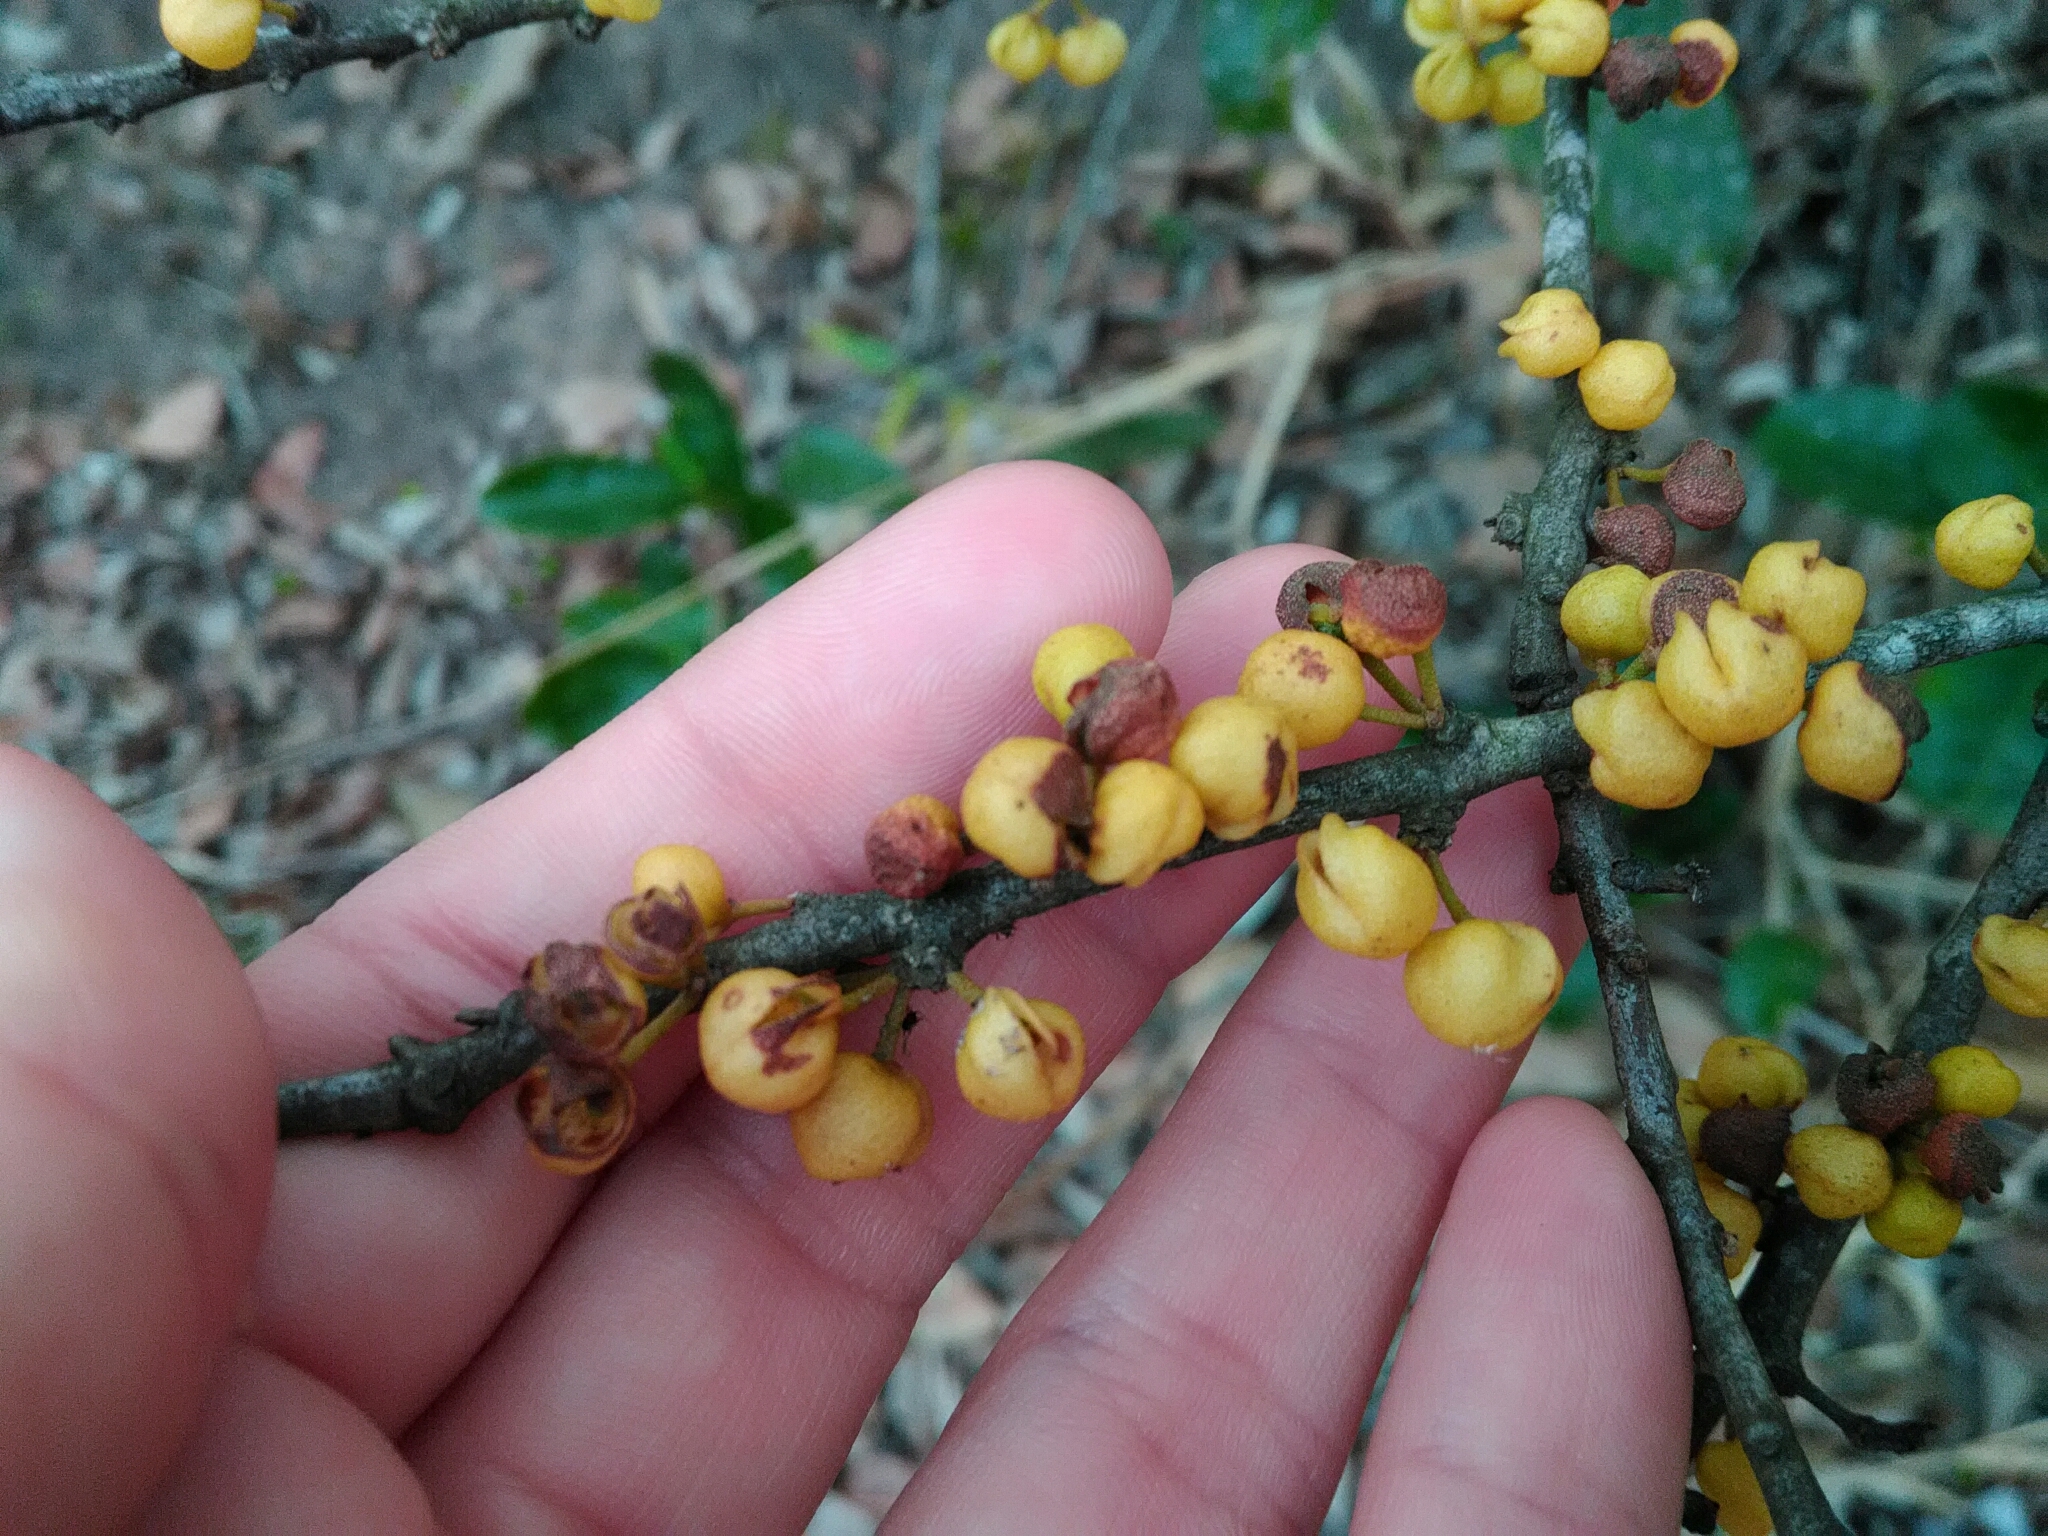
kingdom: Plantae
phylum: Tracheophyta
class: Magnoliopsida
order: Malpighiales
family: Peraceae
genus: Pera
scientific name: Pera glabrata
